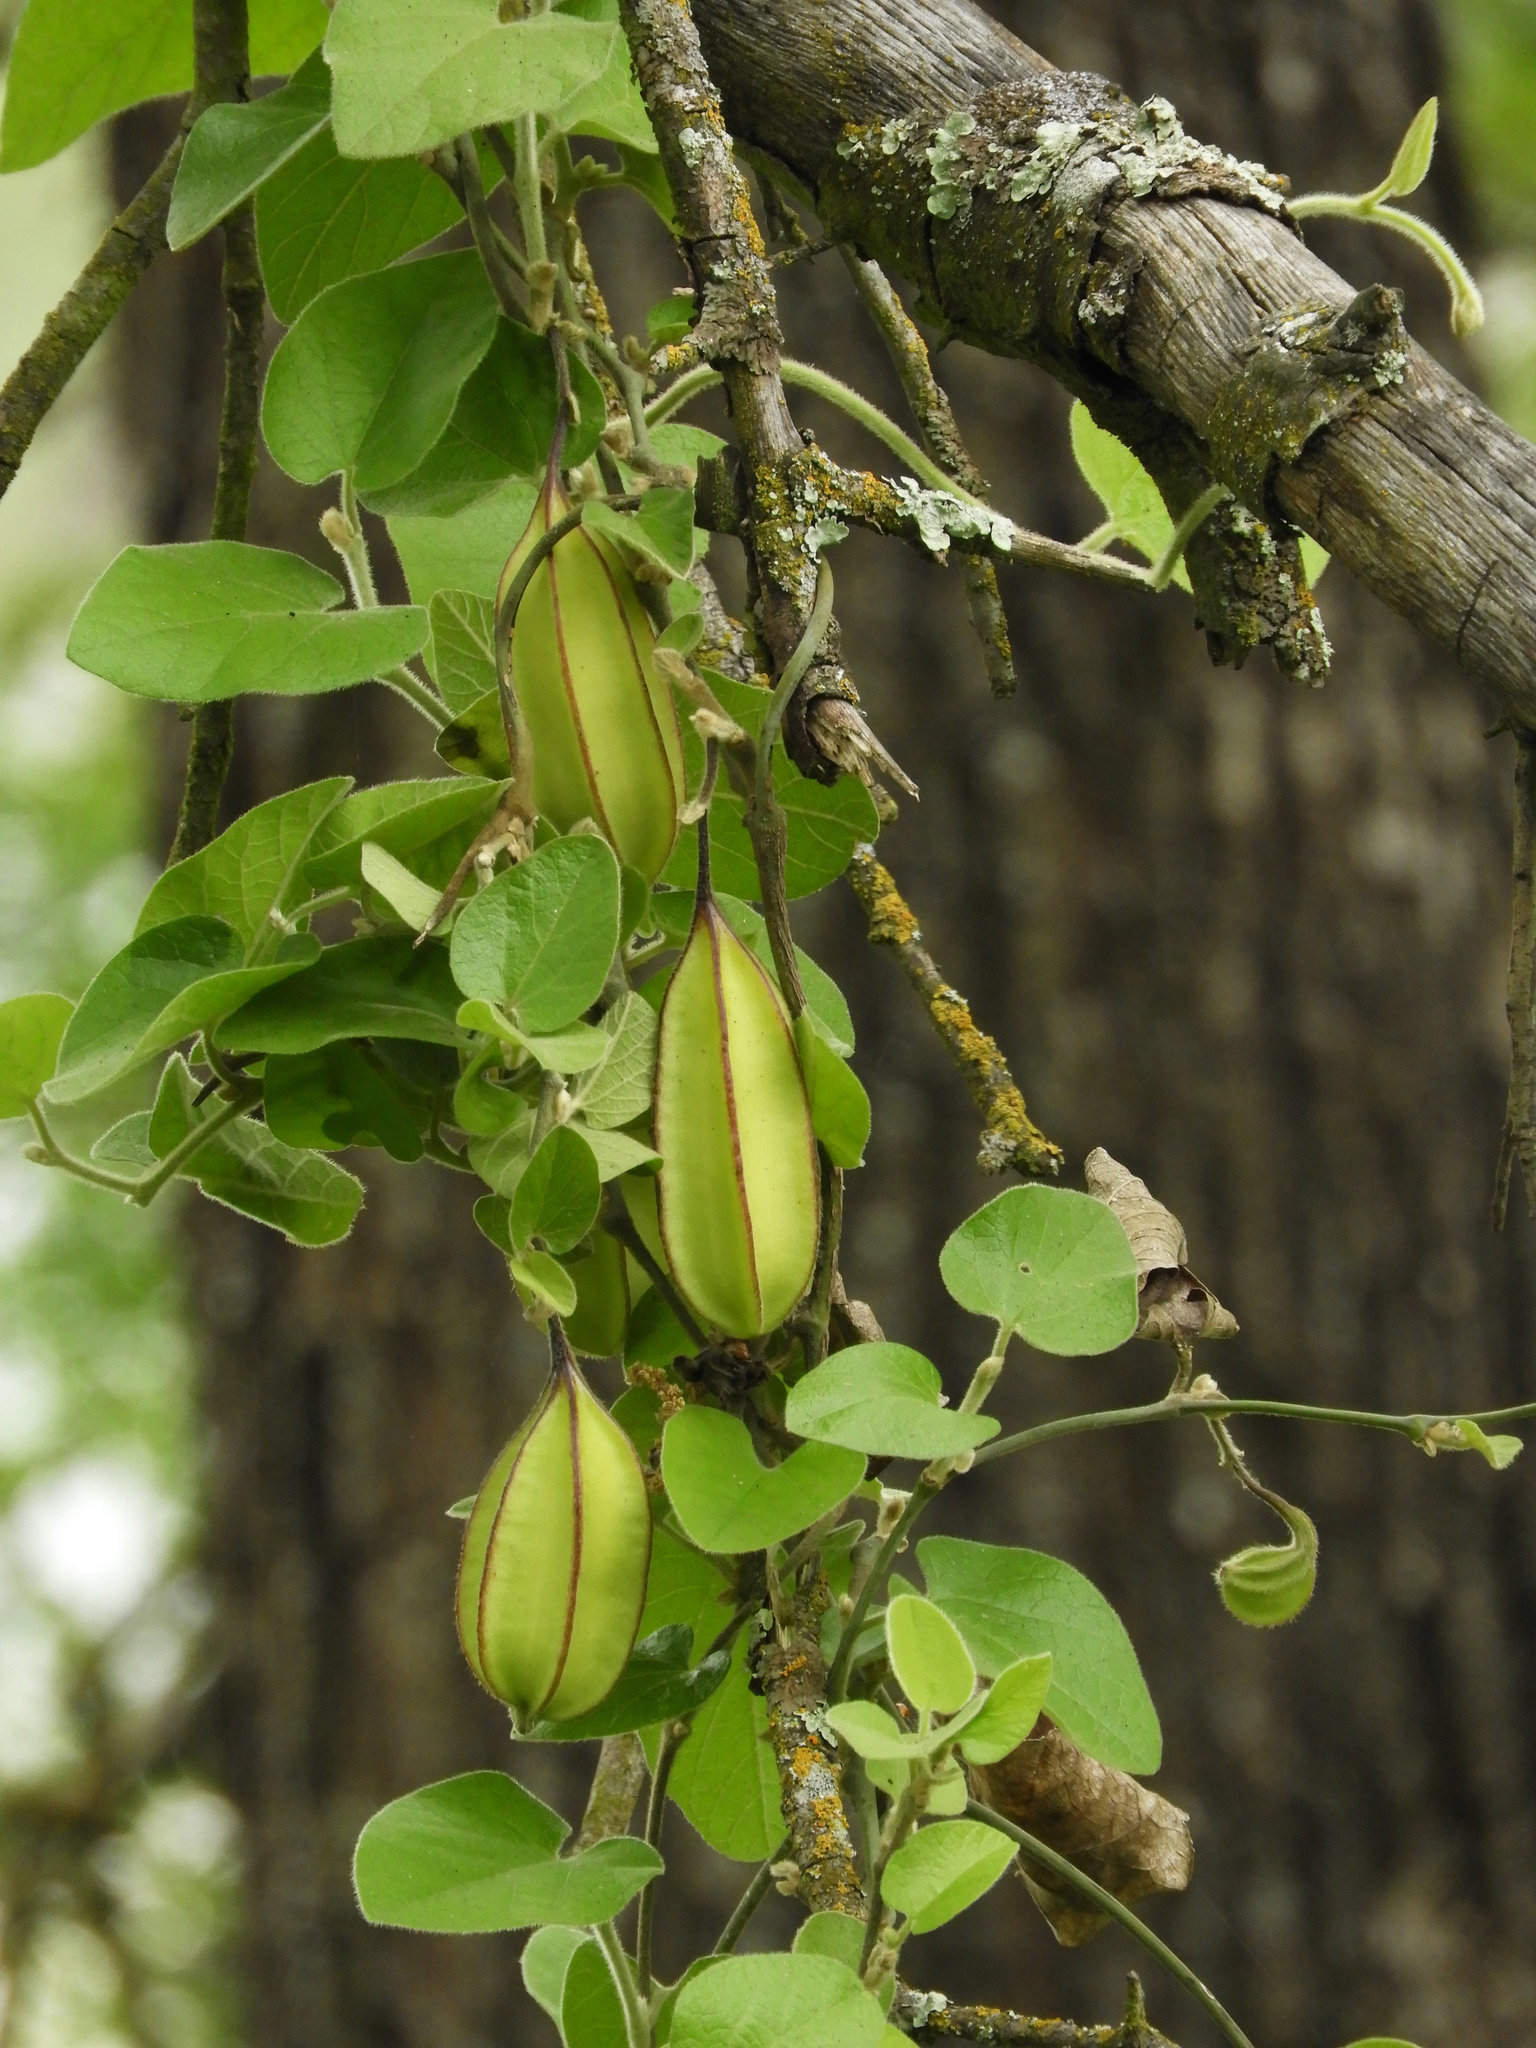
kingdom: Plantae
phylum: Tracheophyta
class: Magnoliopsida
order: Piperales
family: Aristolochiaceae
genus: Isotrema
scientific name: Isotrema californicum
